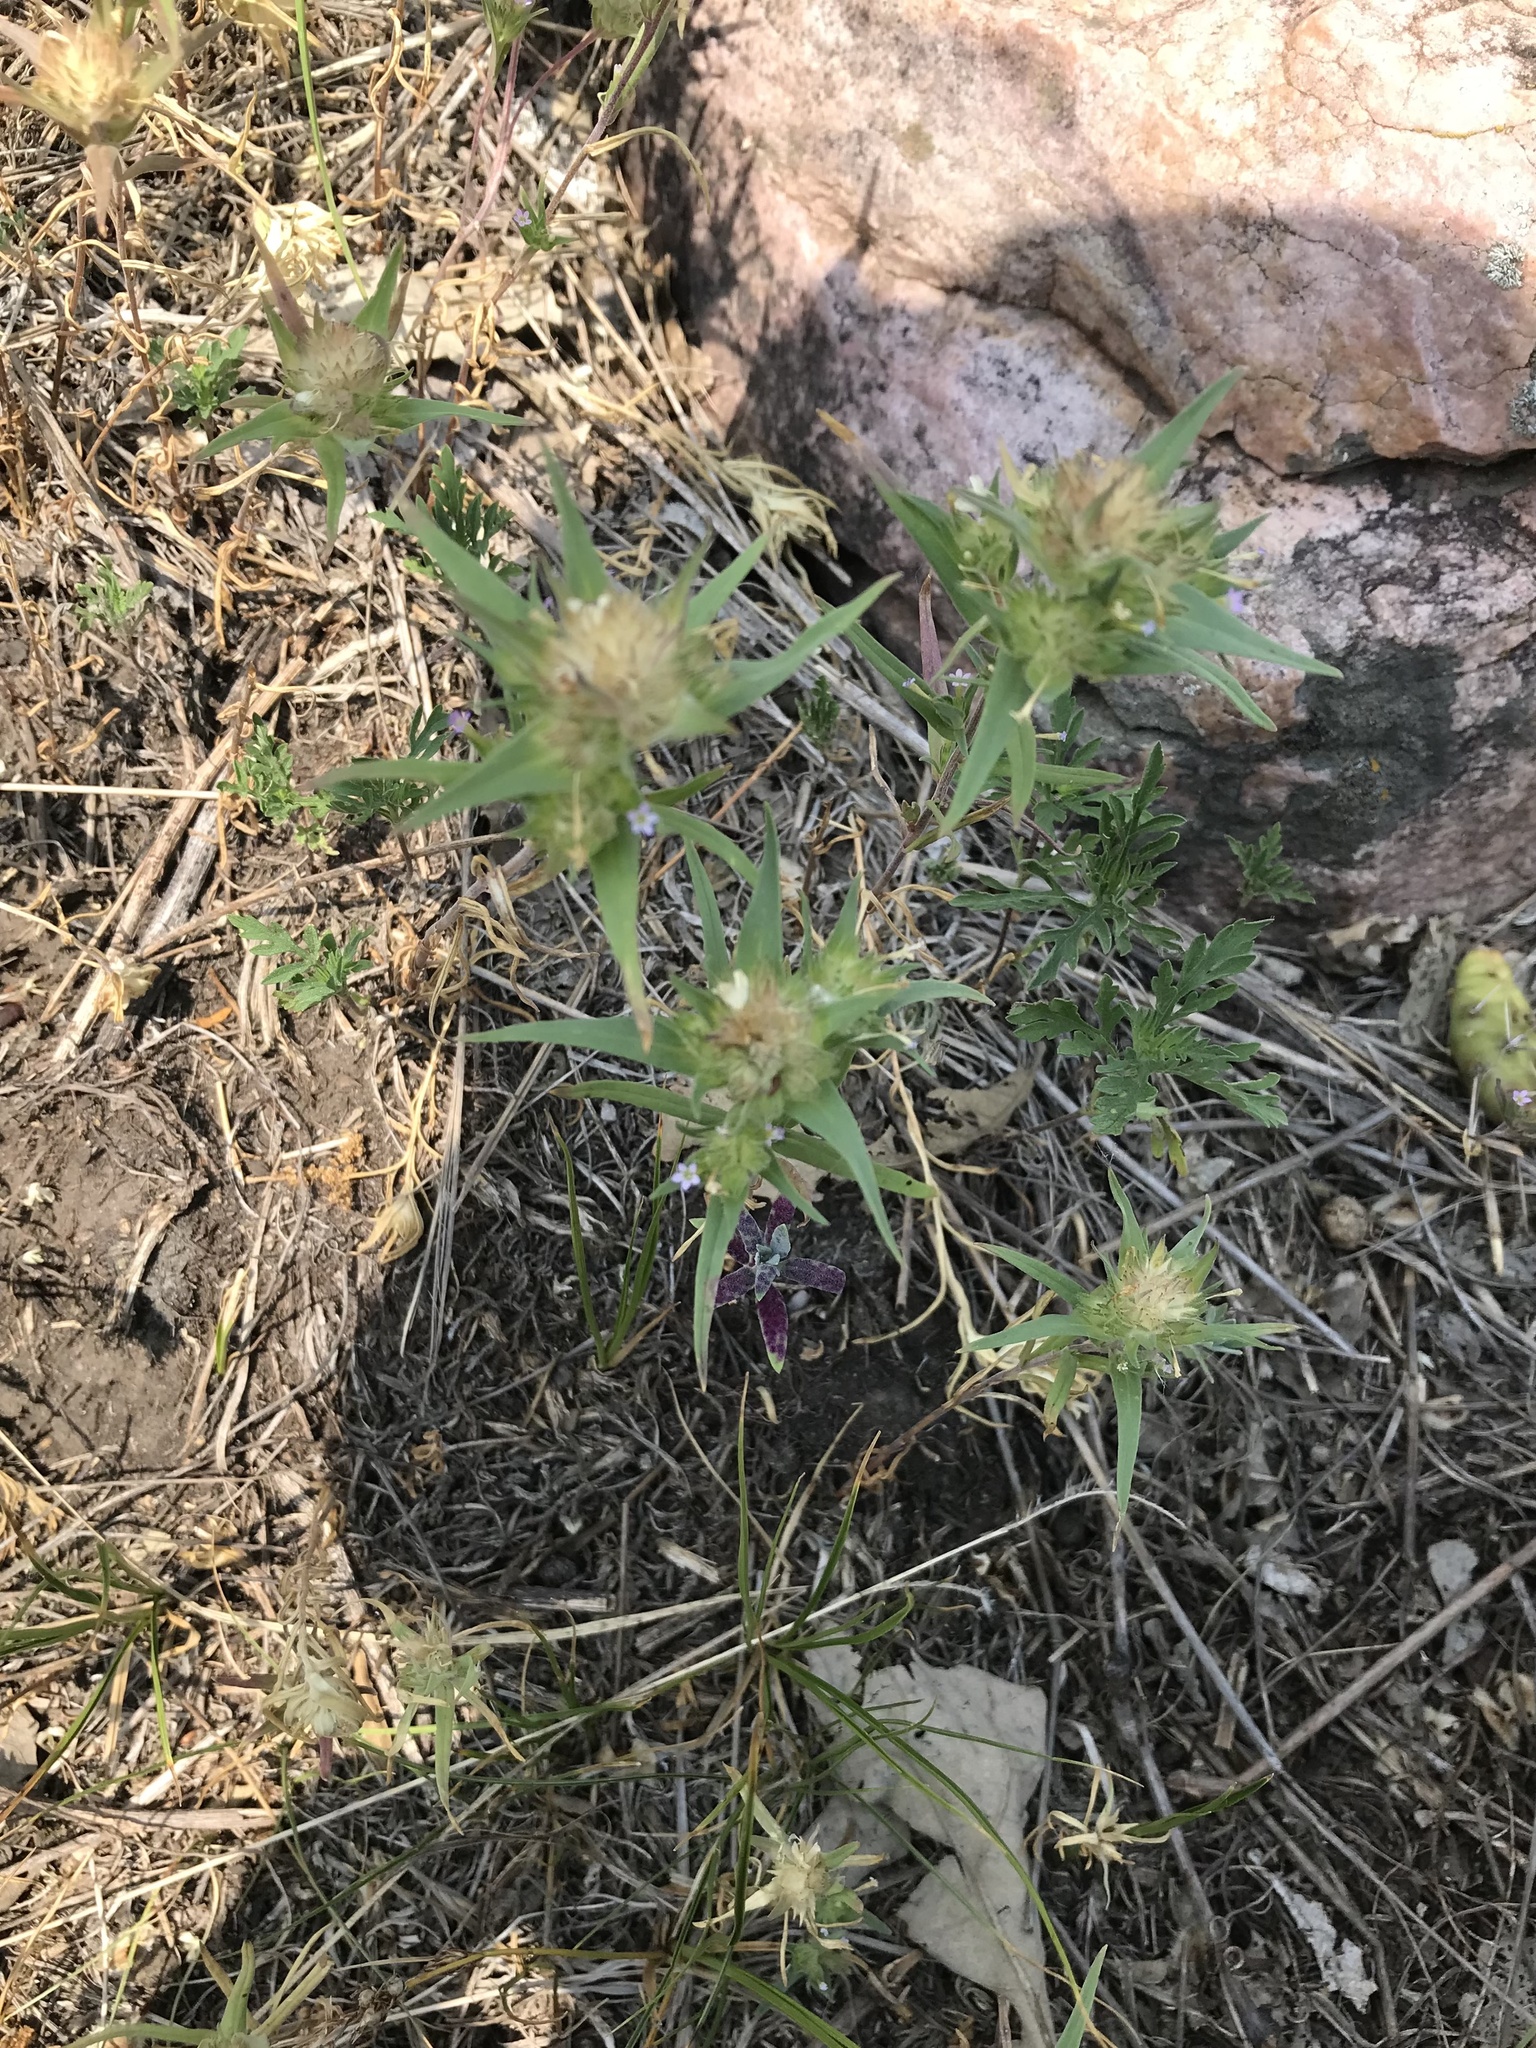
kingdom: Plantae
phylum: Tracheophyta
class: Magnoliopsida
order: Ericales
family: Polemoniaceae
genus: Collomia
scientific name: Collomia linearis
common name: Tiny trumpet
